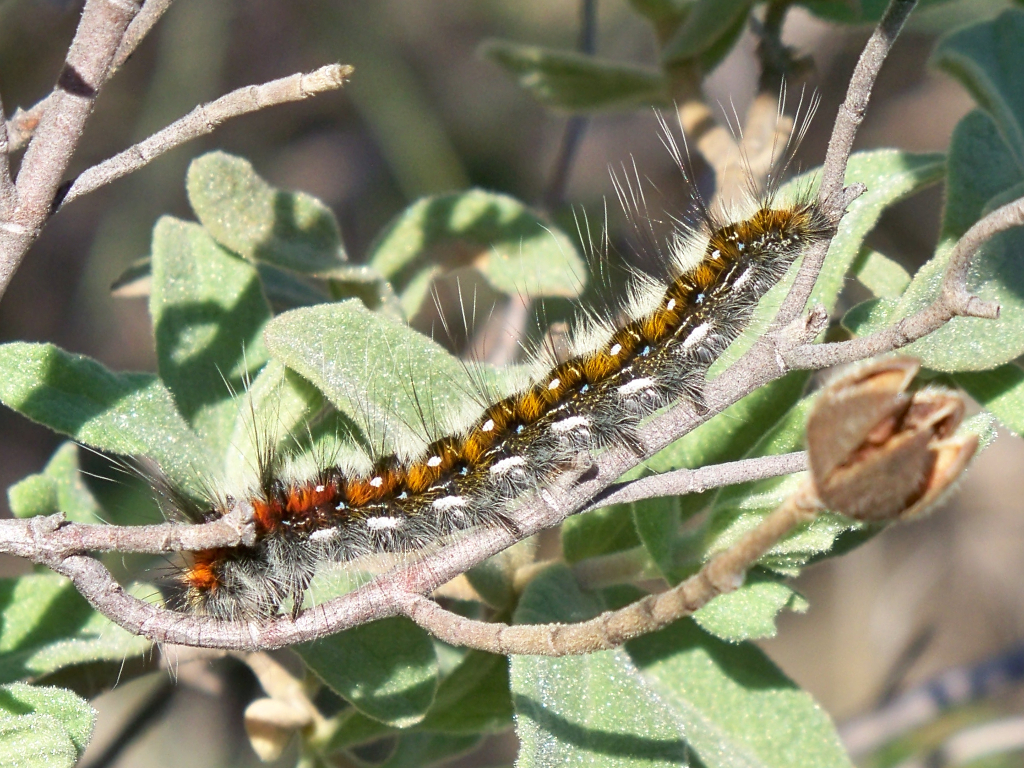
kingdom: Animalia
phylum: Arthropoda
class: Insecta
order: Lepidoptera
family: Lasiocampidae
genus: Psilogaster
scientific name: Psilogaster loti
